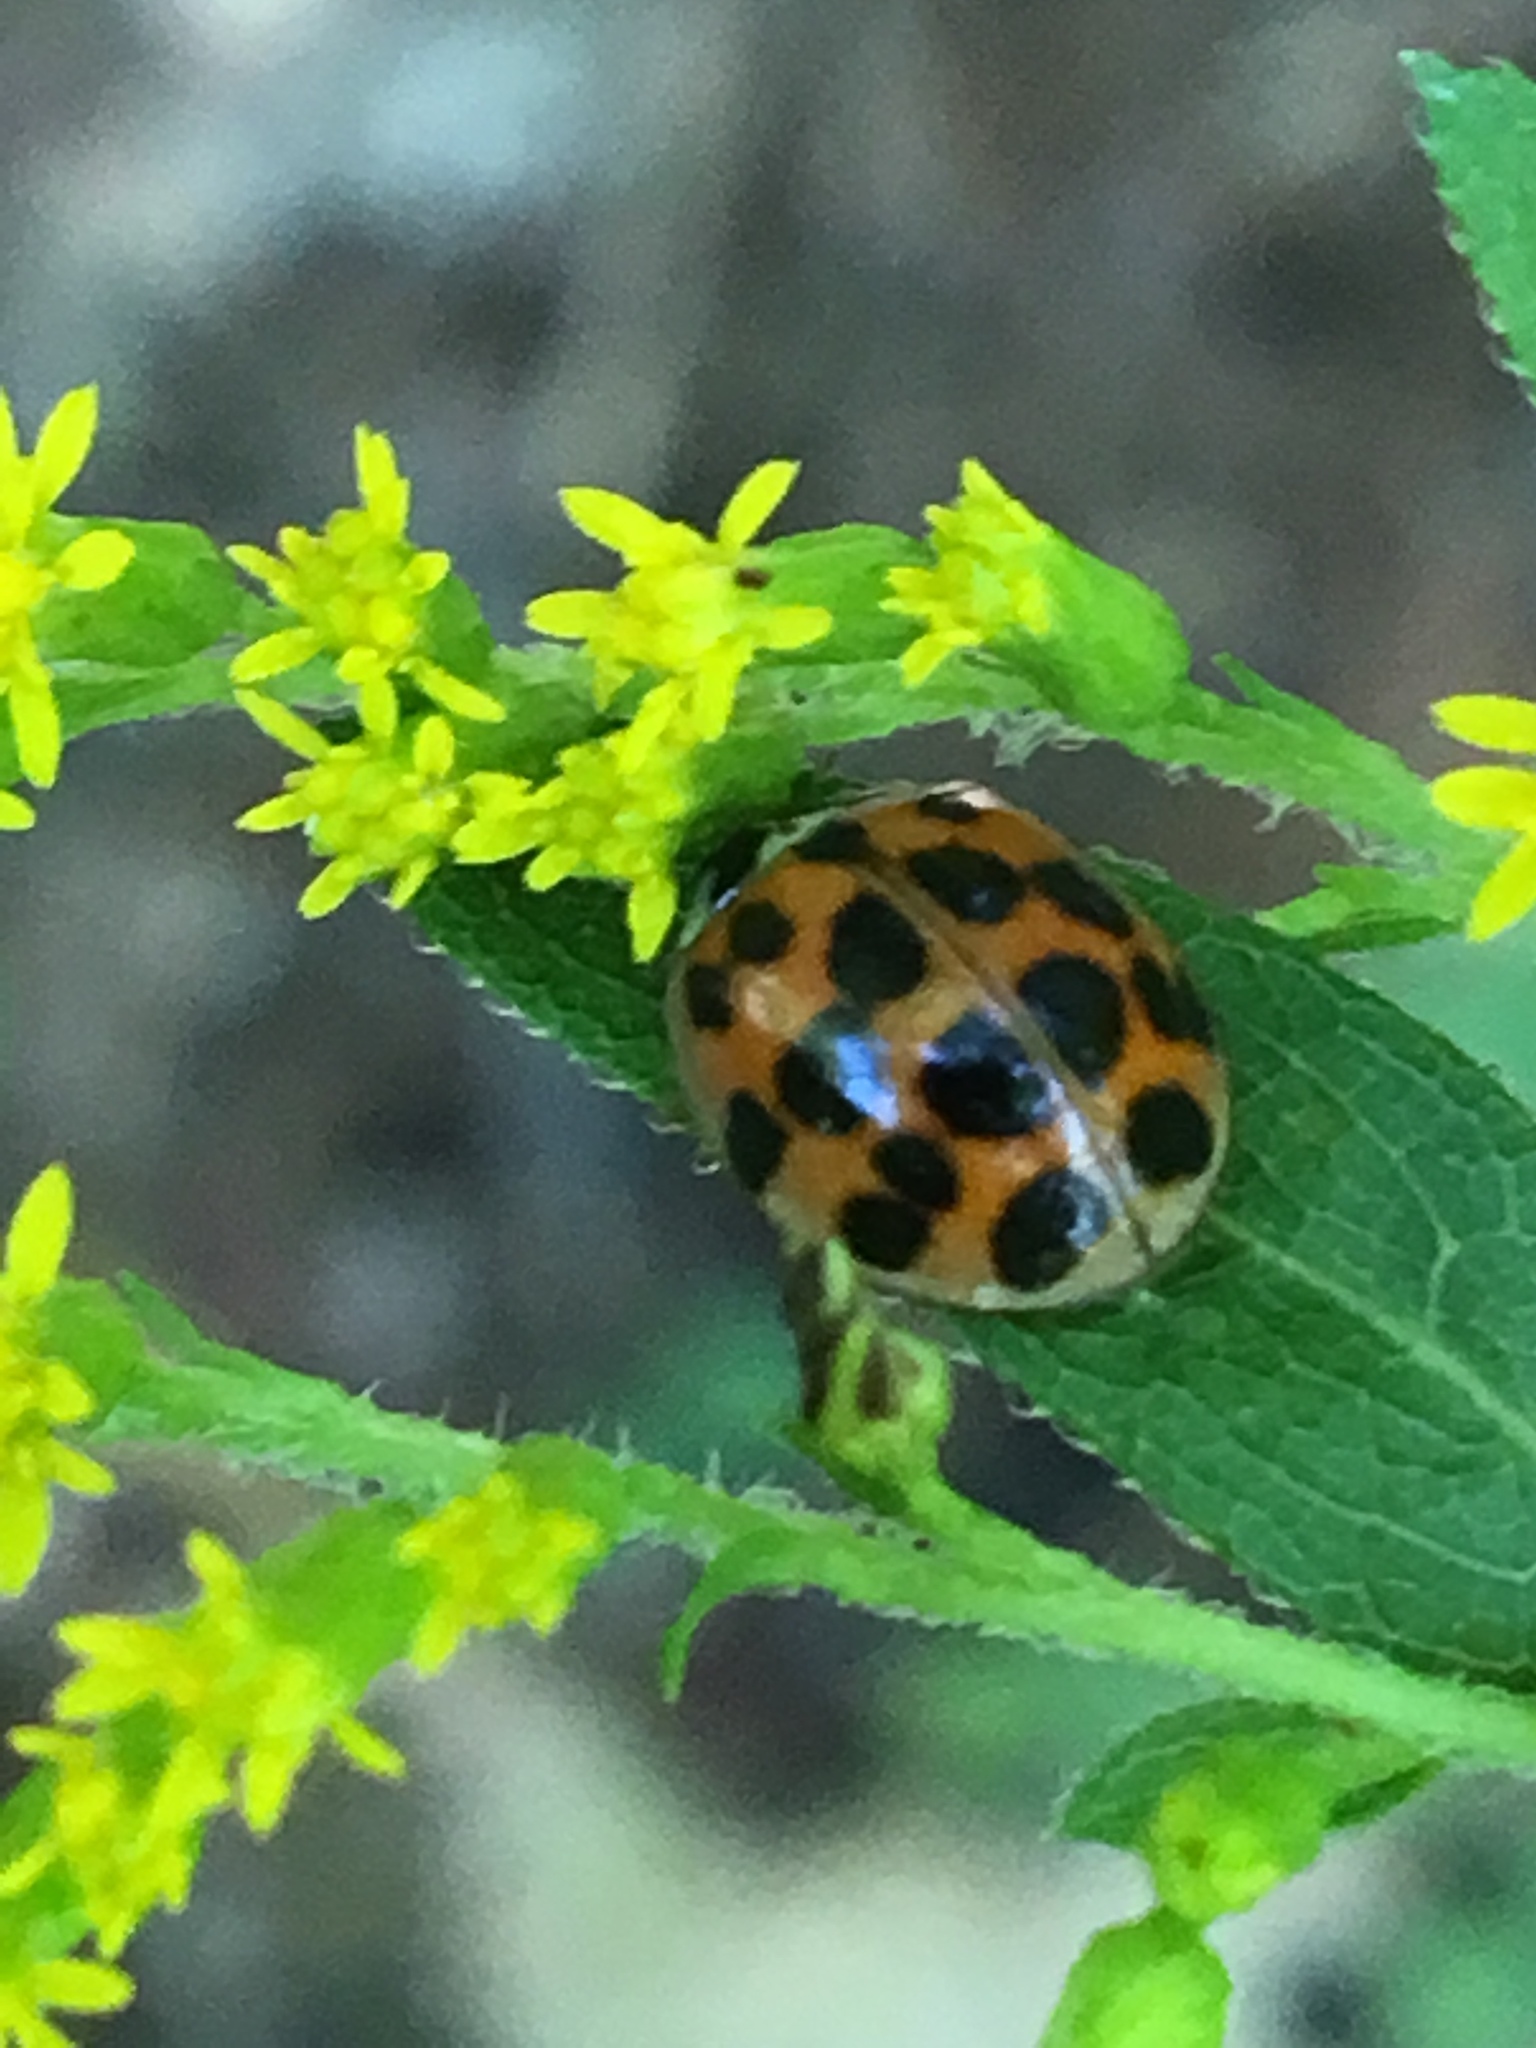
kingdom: Animalia
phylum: Arthropoda
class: Insecta
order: Coleoptera
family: Coccinellidae
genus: Harmonia
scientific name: Harmonia axyridis
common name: Harlequin ladybird
